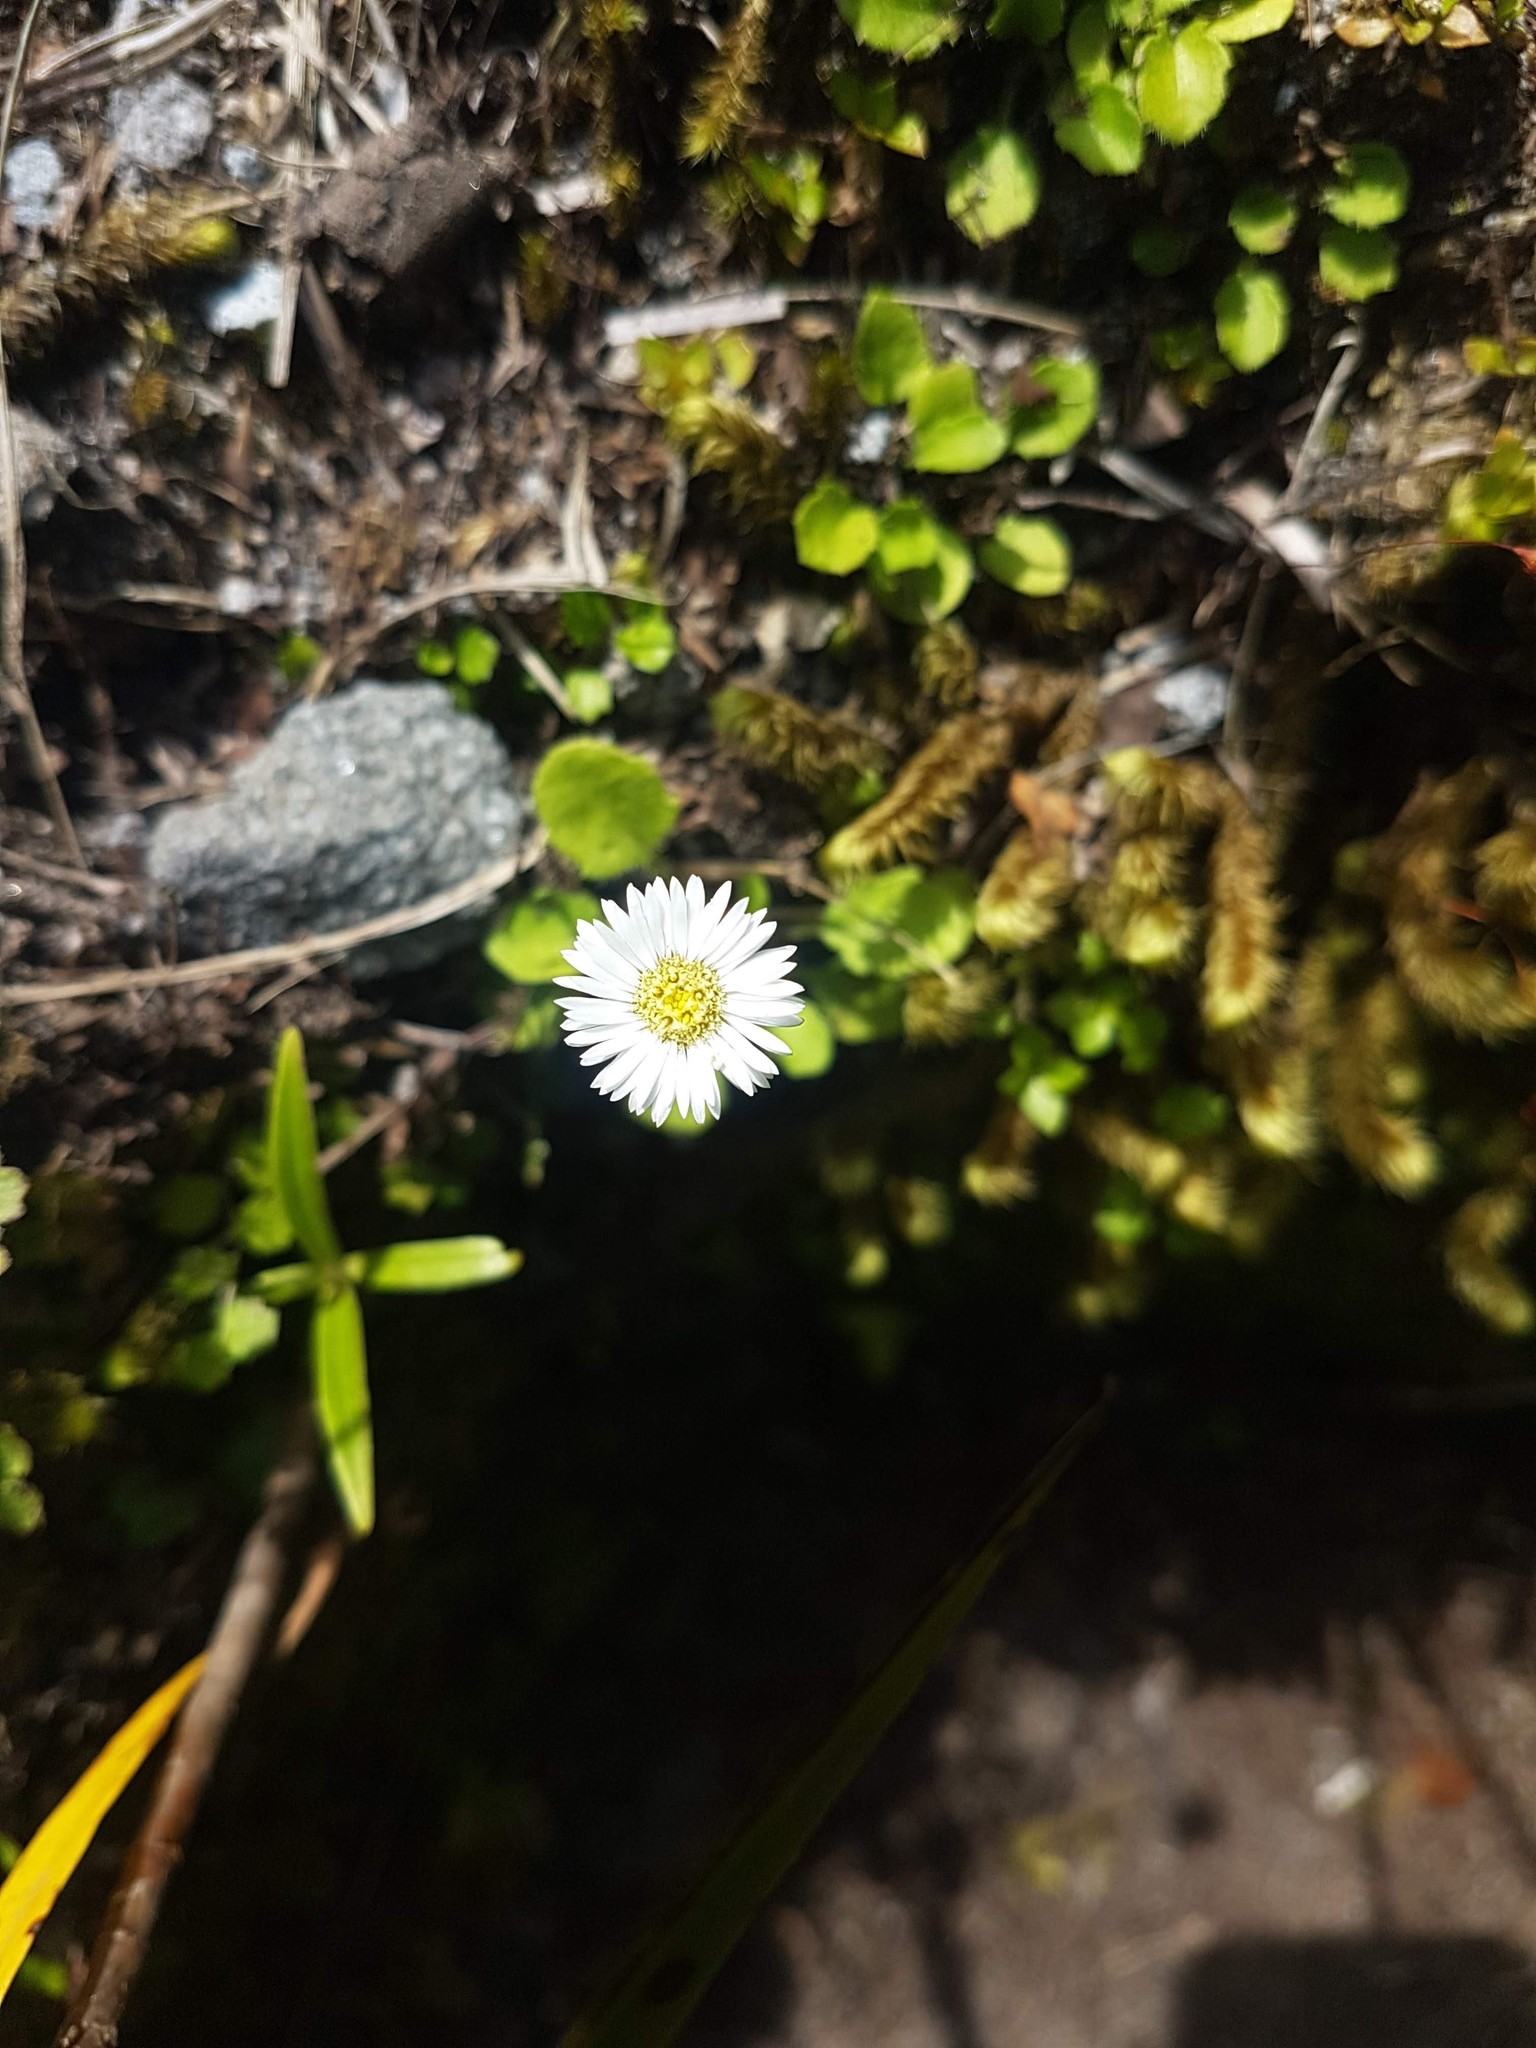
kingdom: Plantae
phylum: Tracheophyta
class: Magnoliopsida
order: Asterales
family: Asteraceae
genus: Lagenophora
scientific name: Lagenophora pumila
